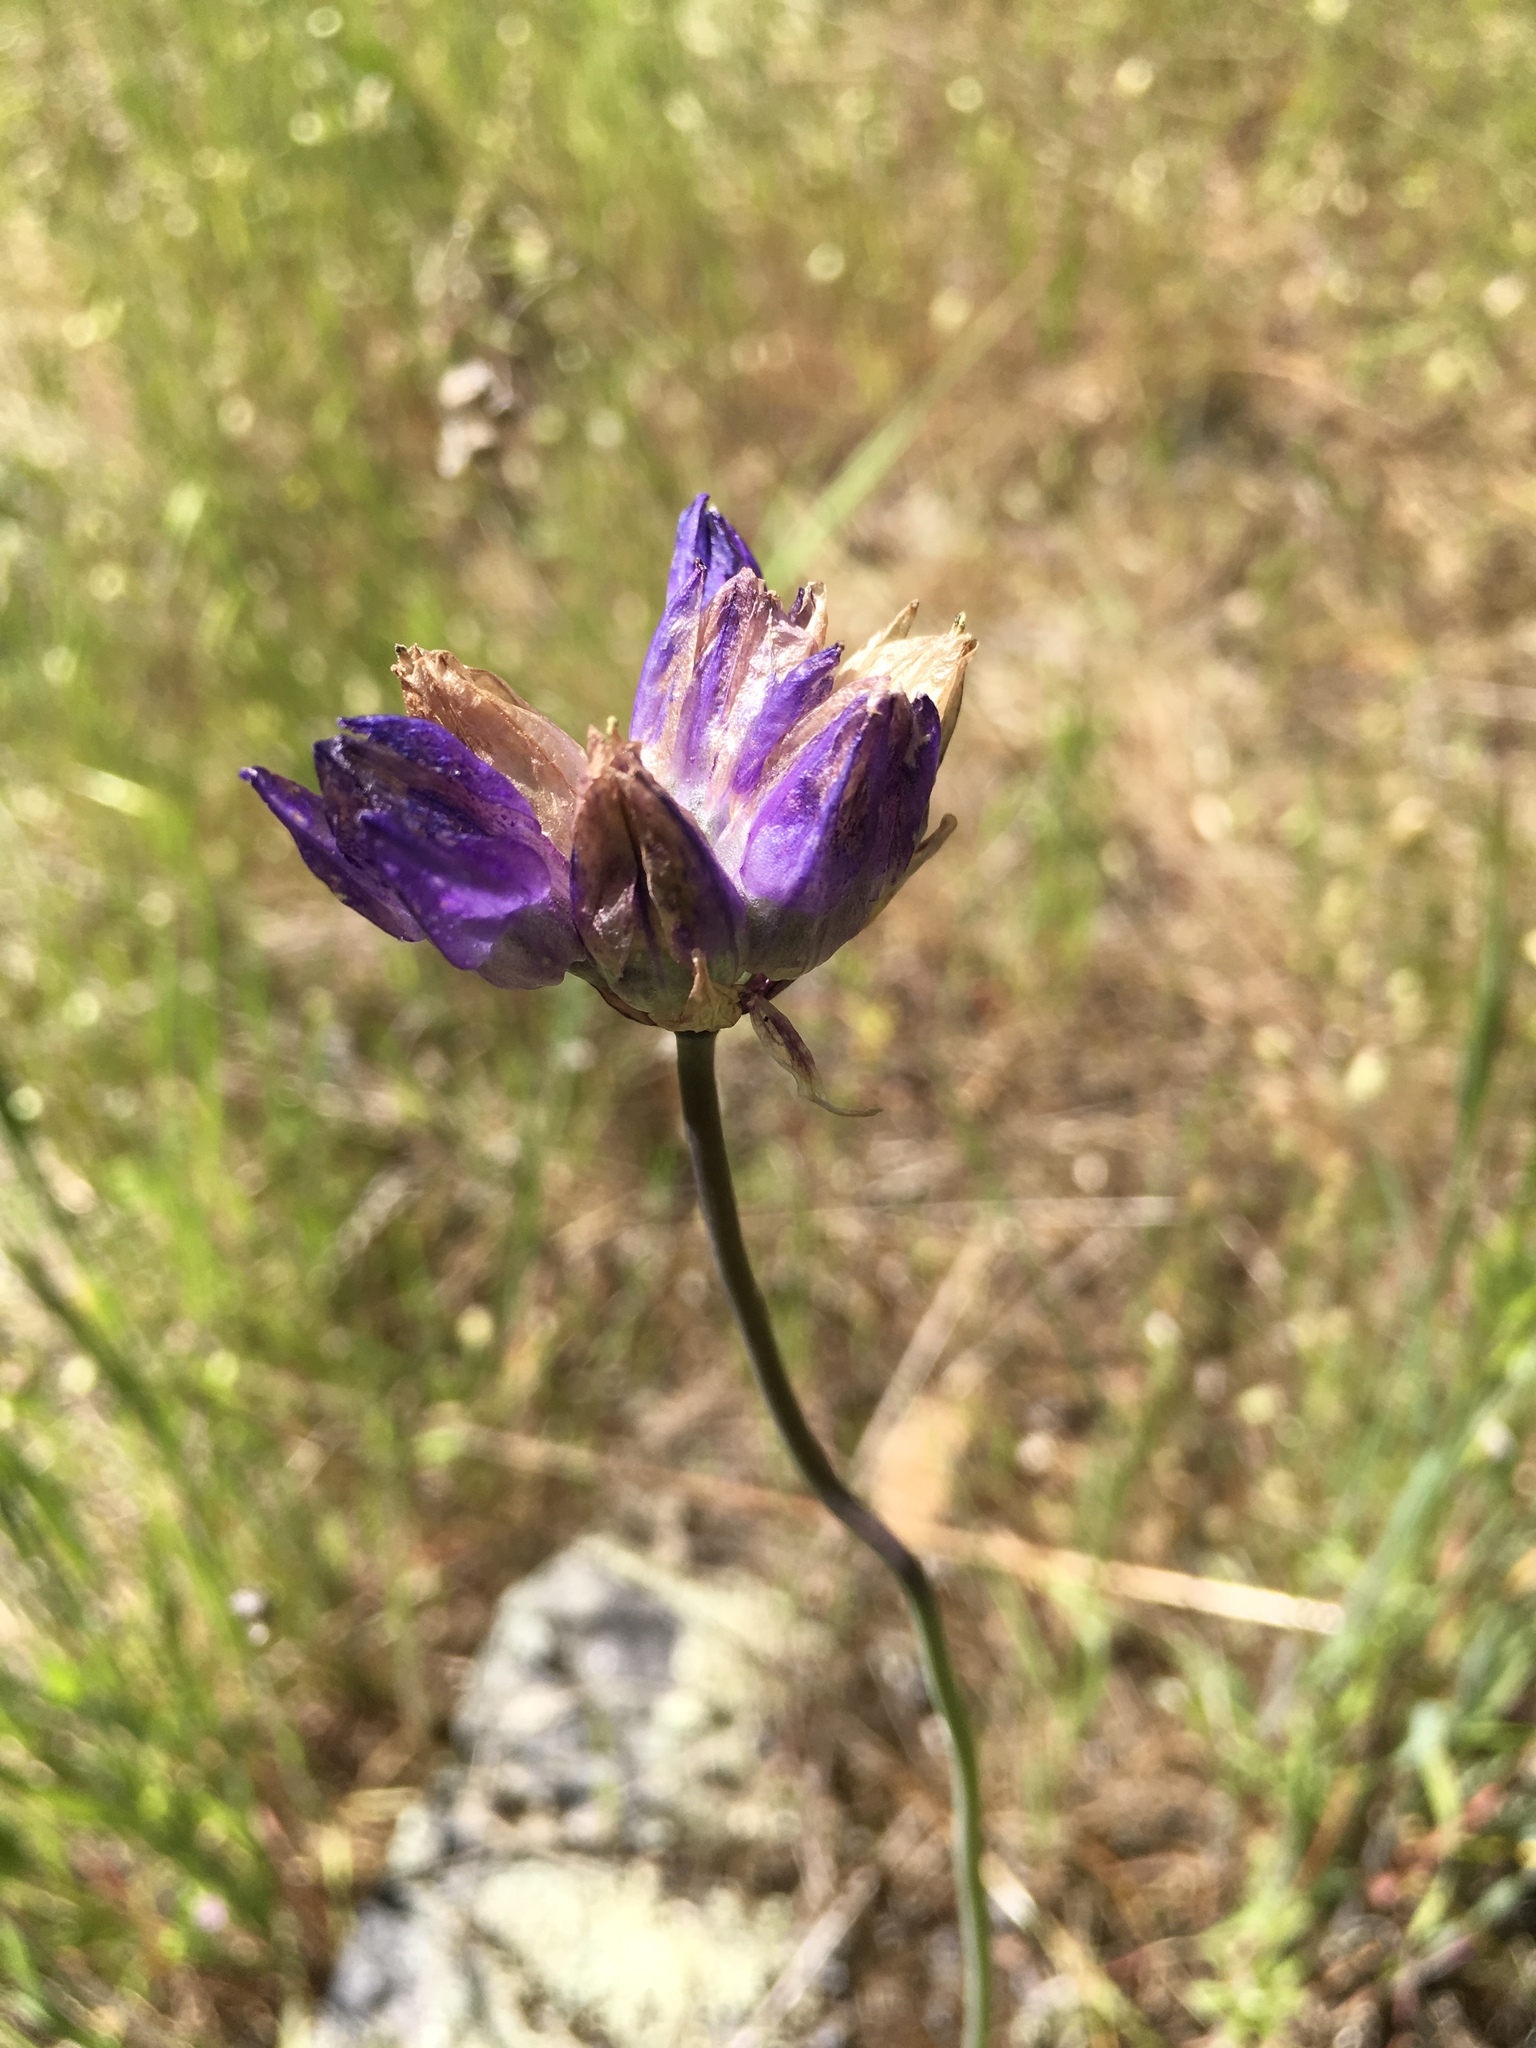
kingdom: Plantae
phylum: Tracheophyta
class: Liliopsida
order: Asparagales
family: Asparagaceae
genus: Dipterostemon
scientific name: Dipterostemon capitatus
